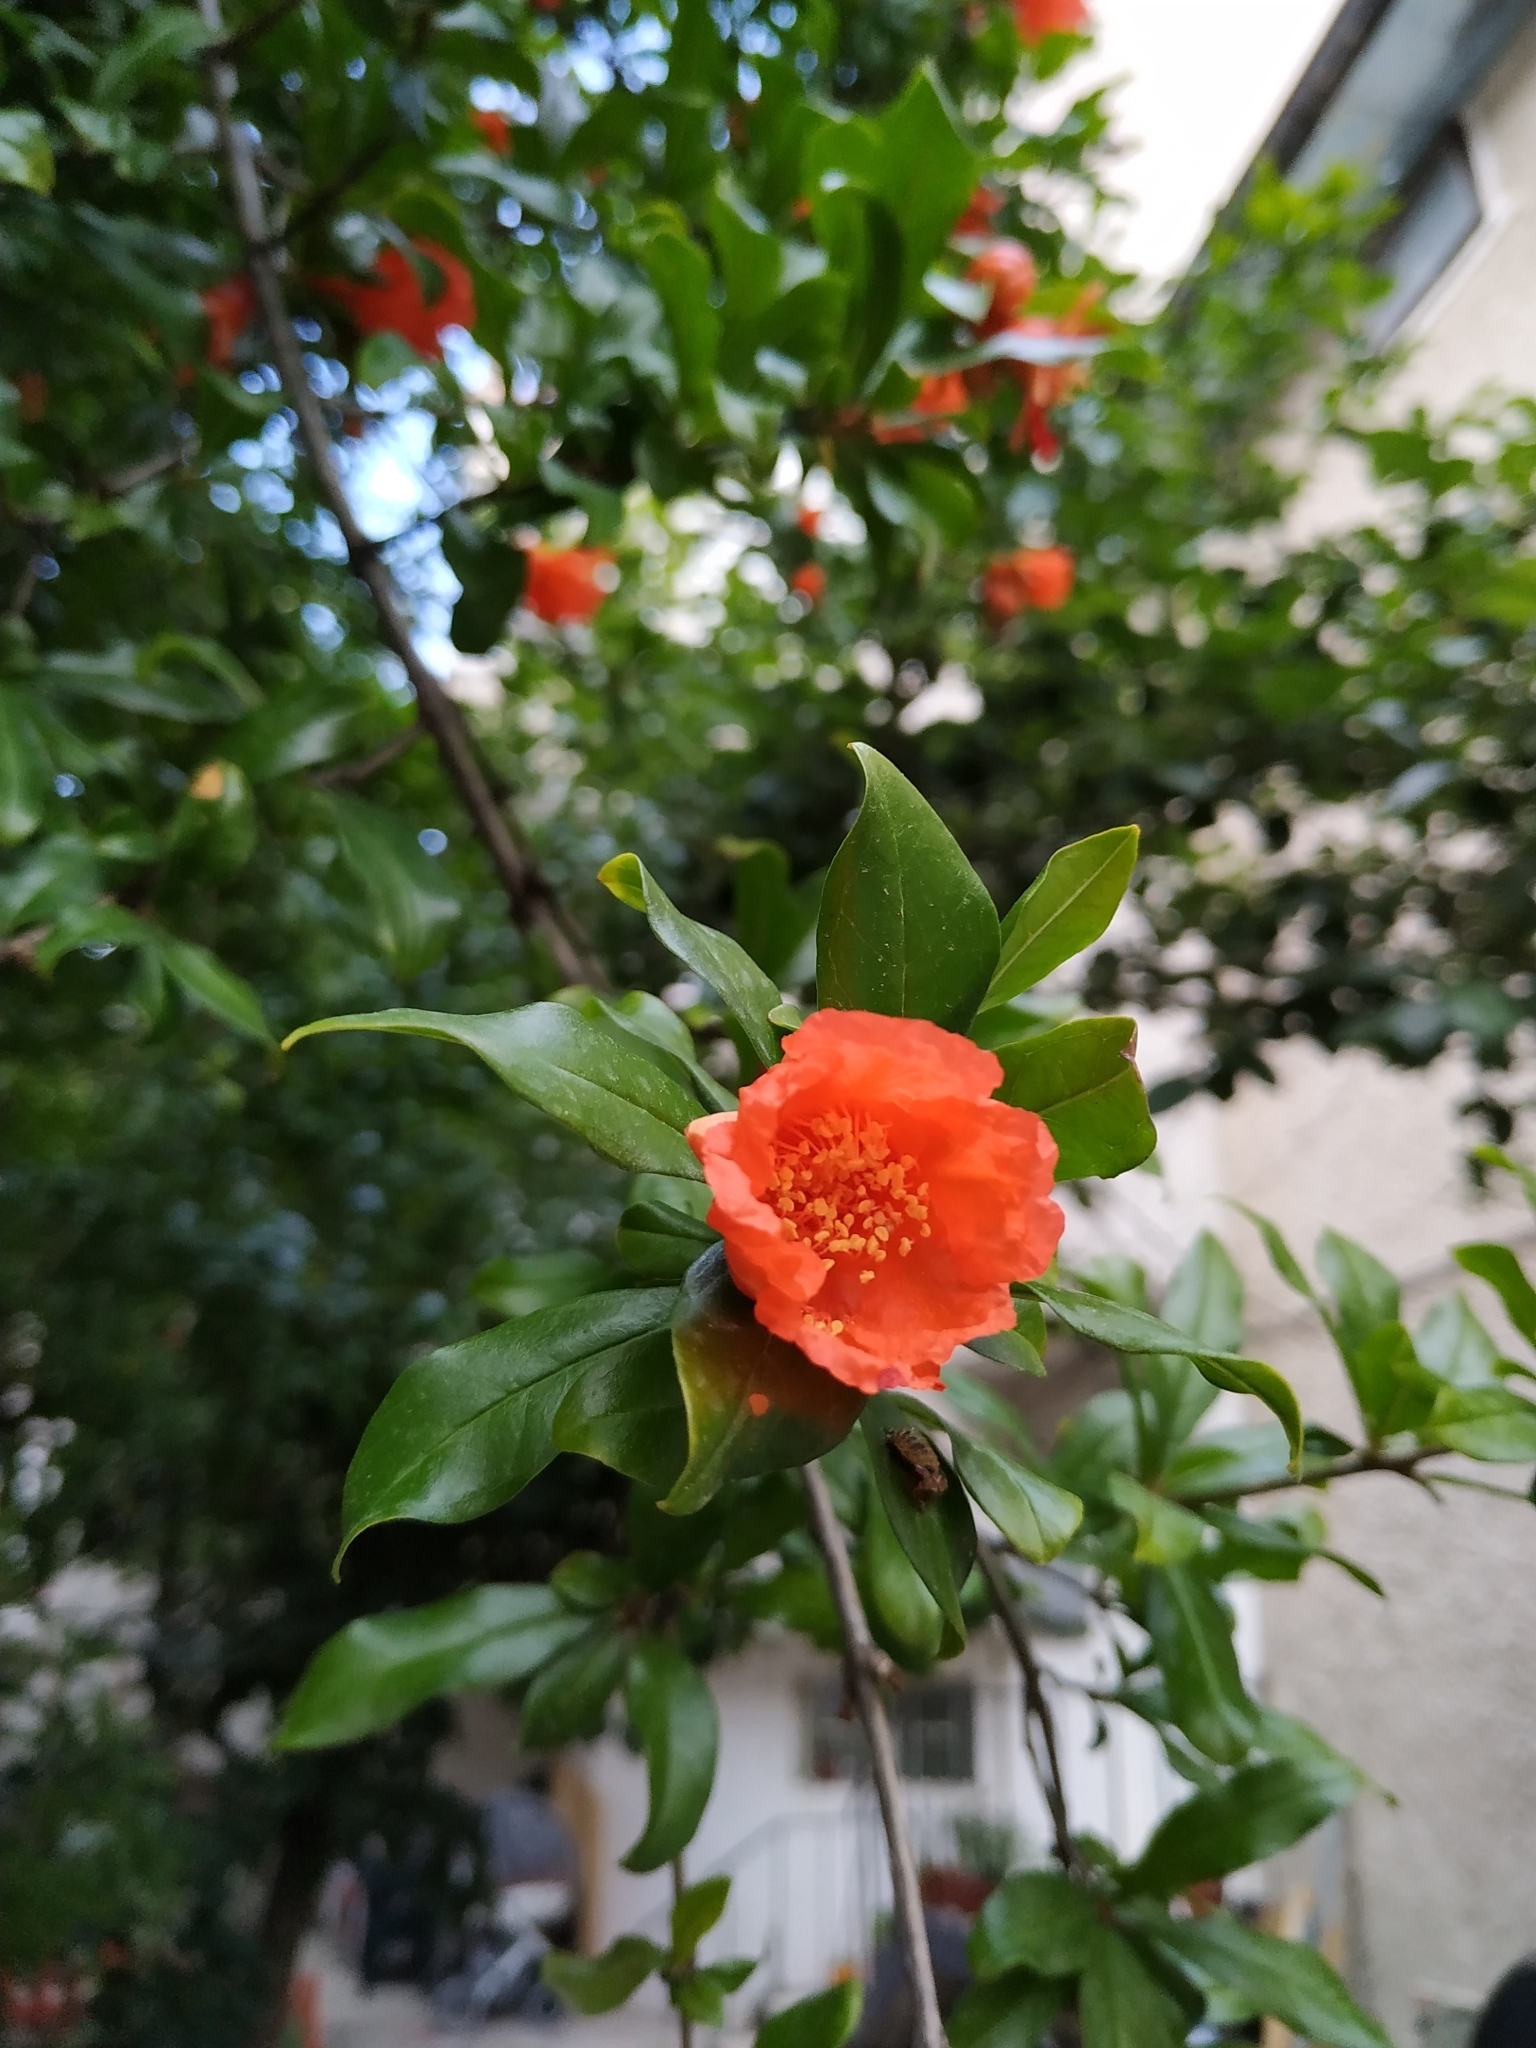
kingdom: Plantae
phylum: Tracheophyta
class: Magnoliopsida
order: Myrtales
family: Lythraceae
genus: Punica
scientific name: Punica granatum
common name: Pomegranate
